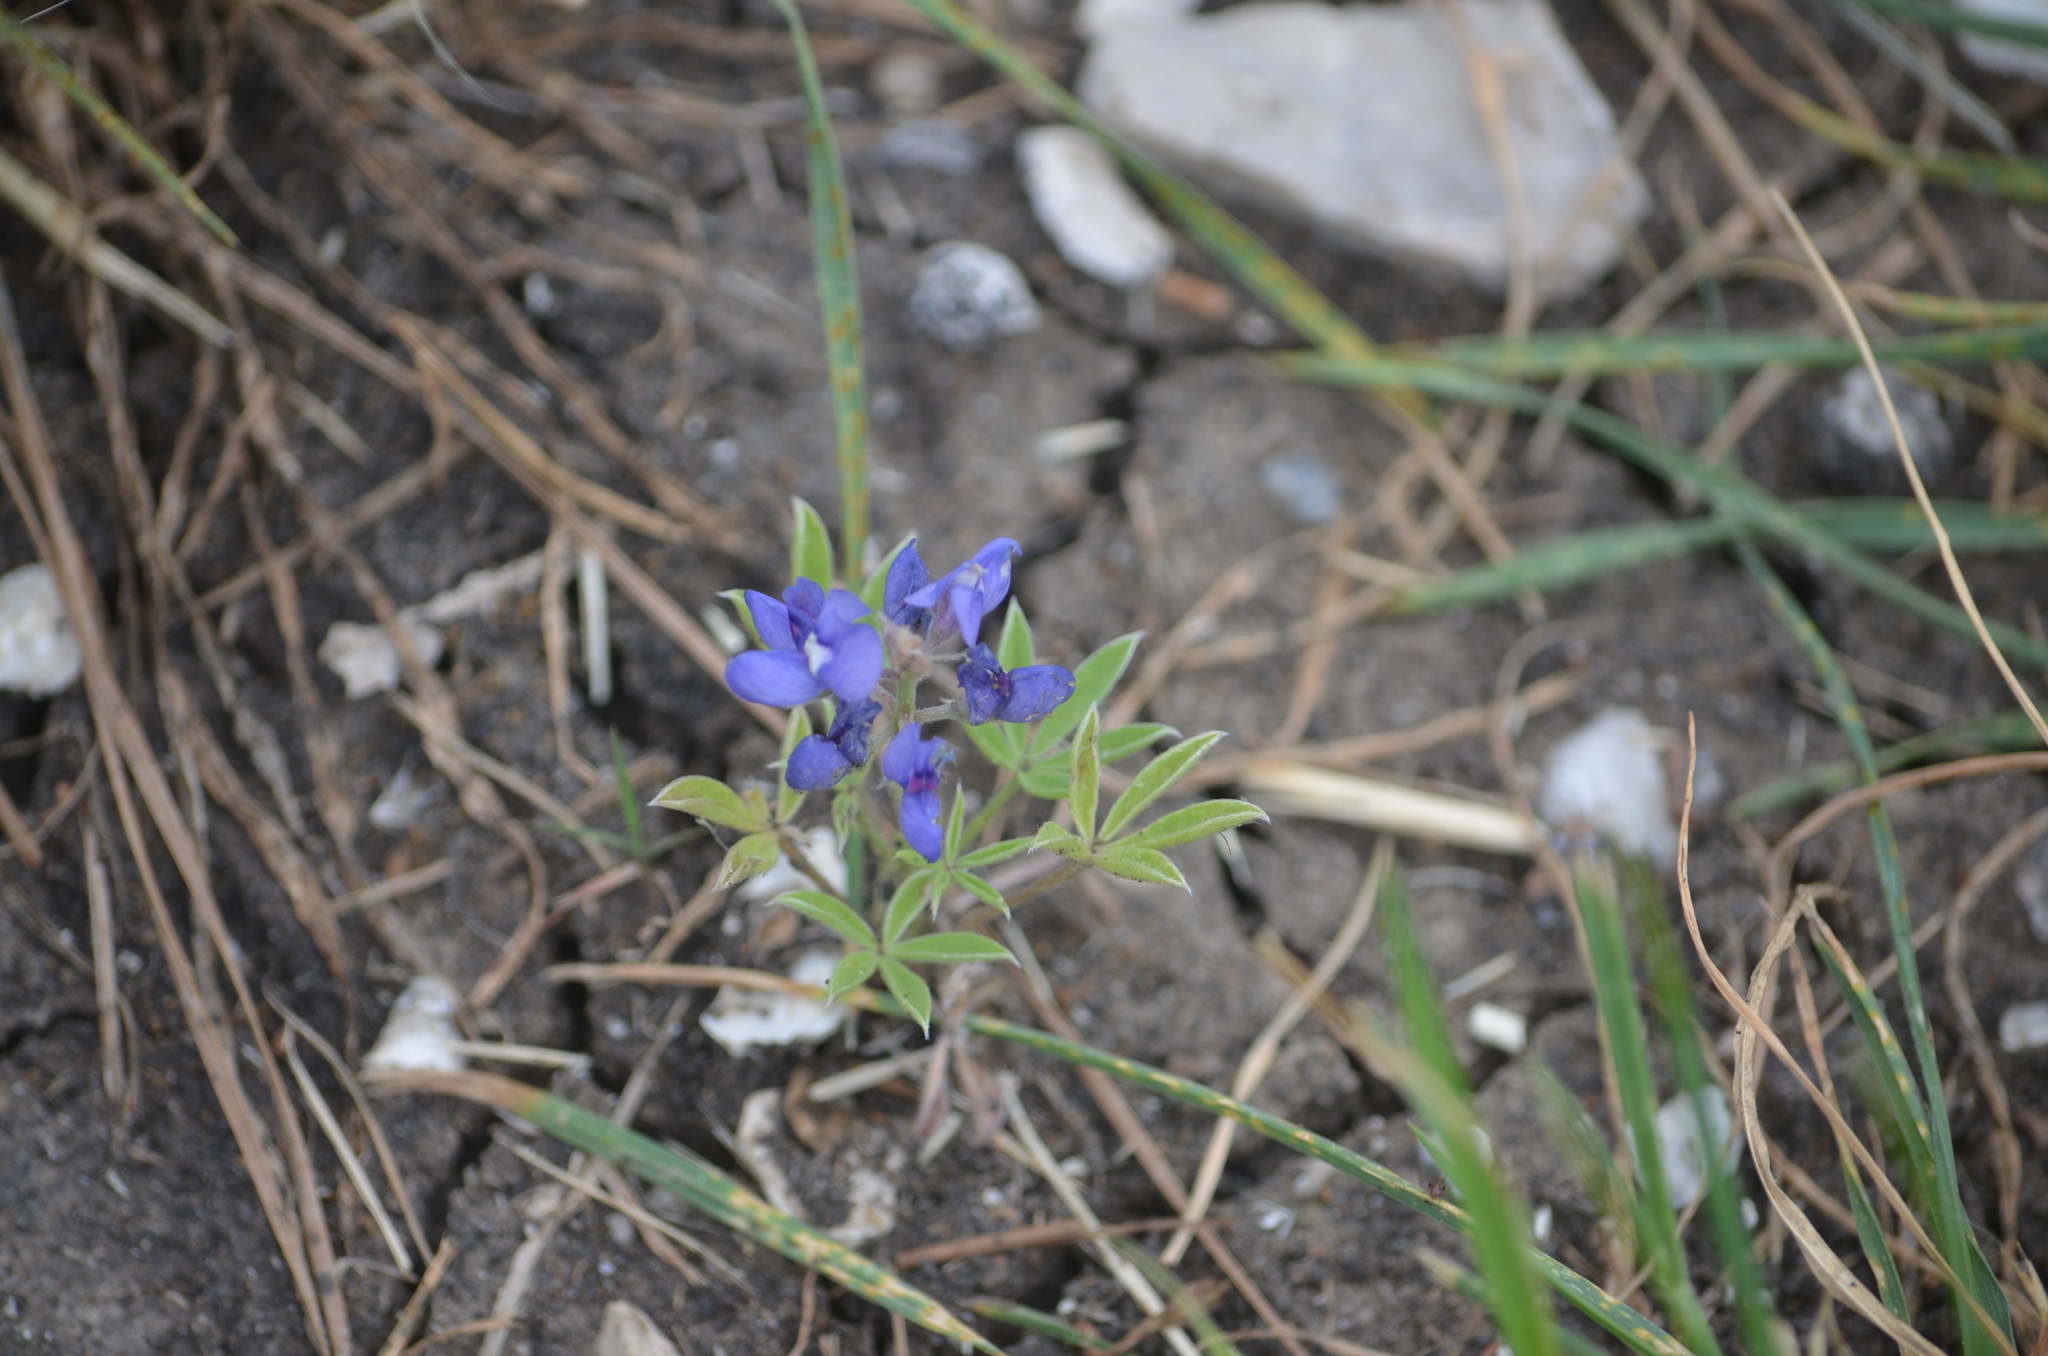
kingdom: Plantae
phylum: Tracheophyta
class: Magnoliopsida
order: Fabales
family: Fabaceae
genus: Lupinus
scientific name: Lupinus texensis
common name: Texas bluebonnet
